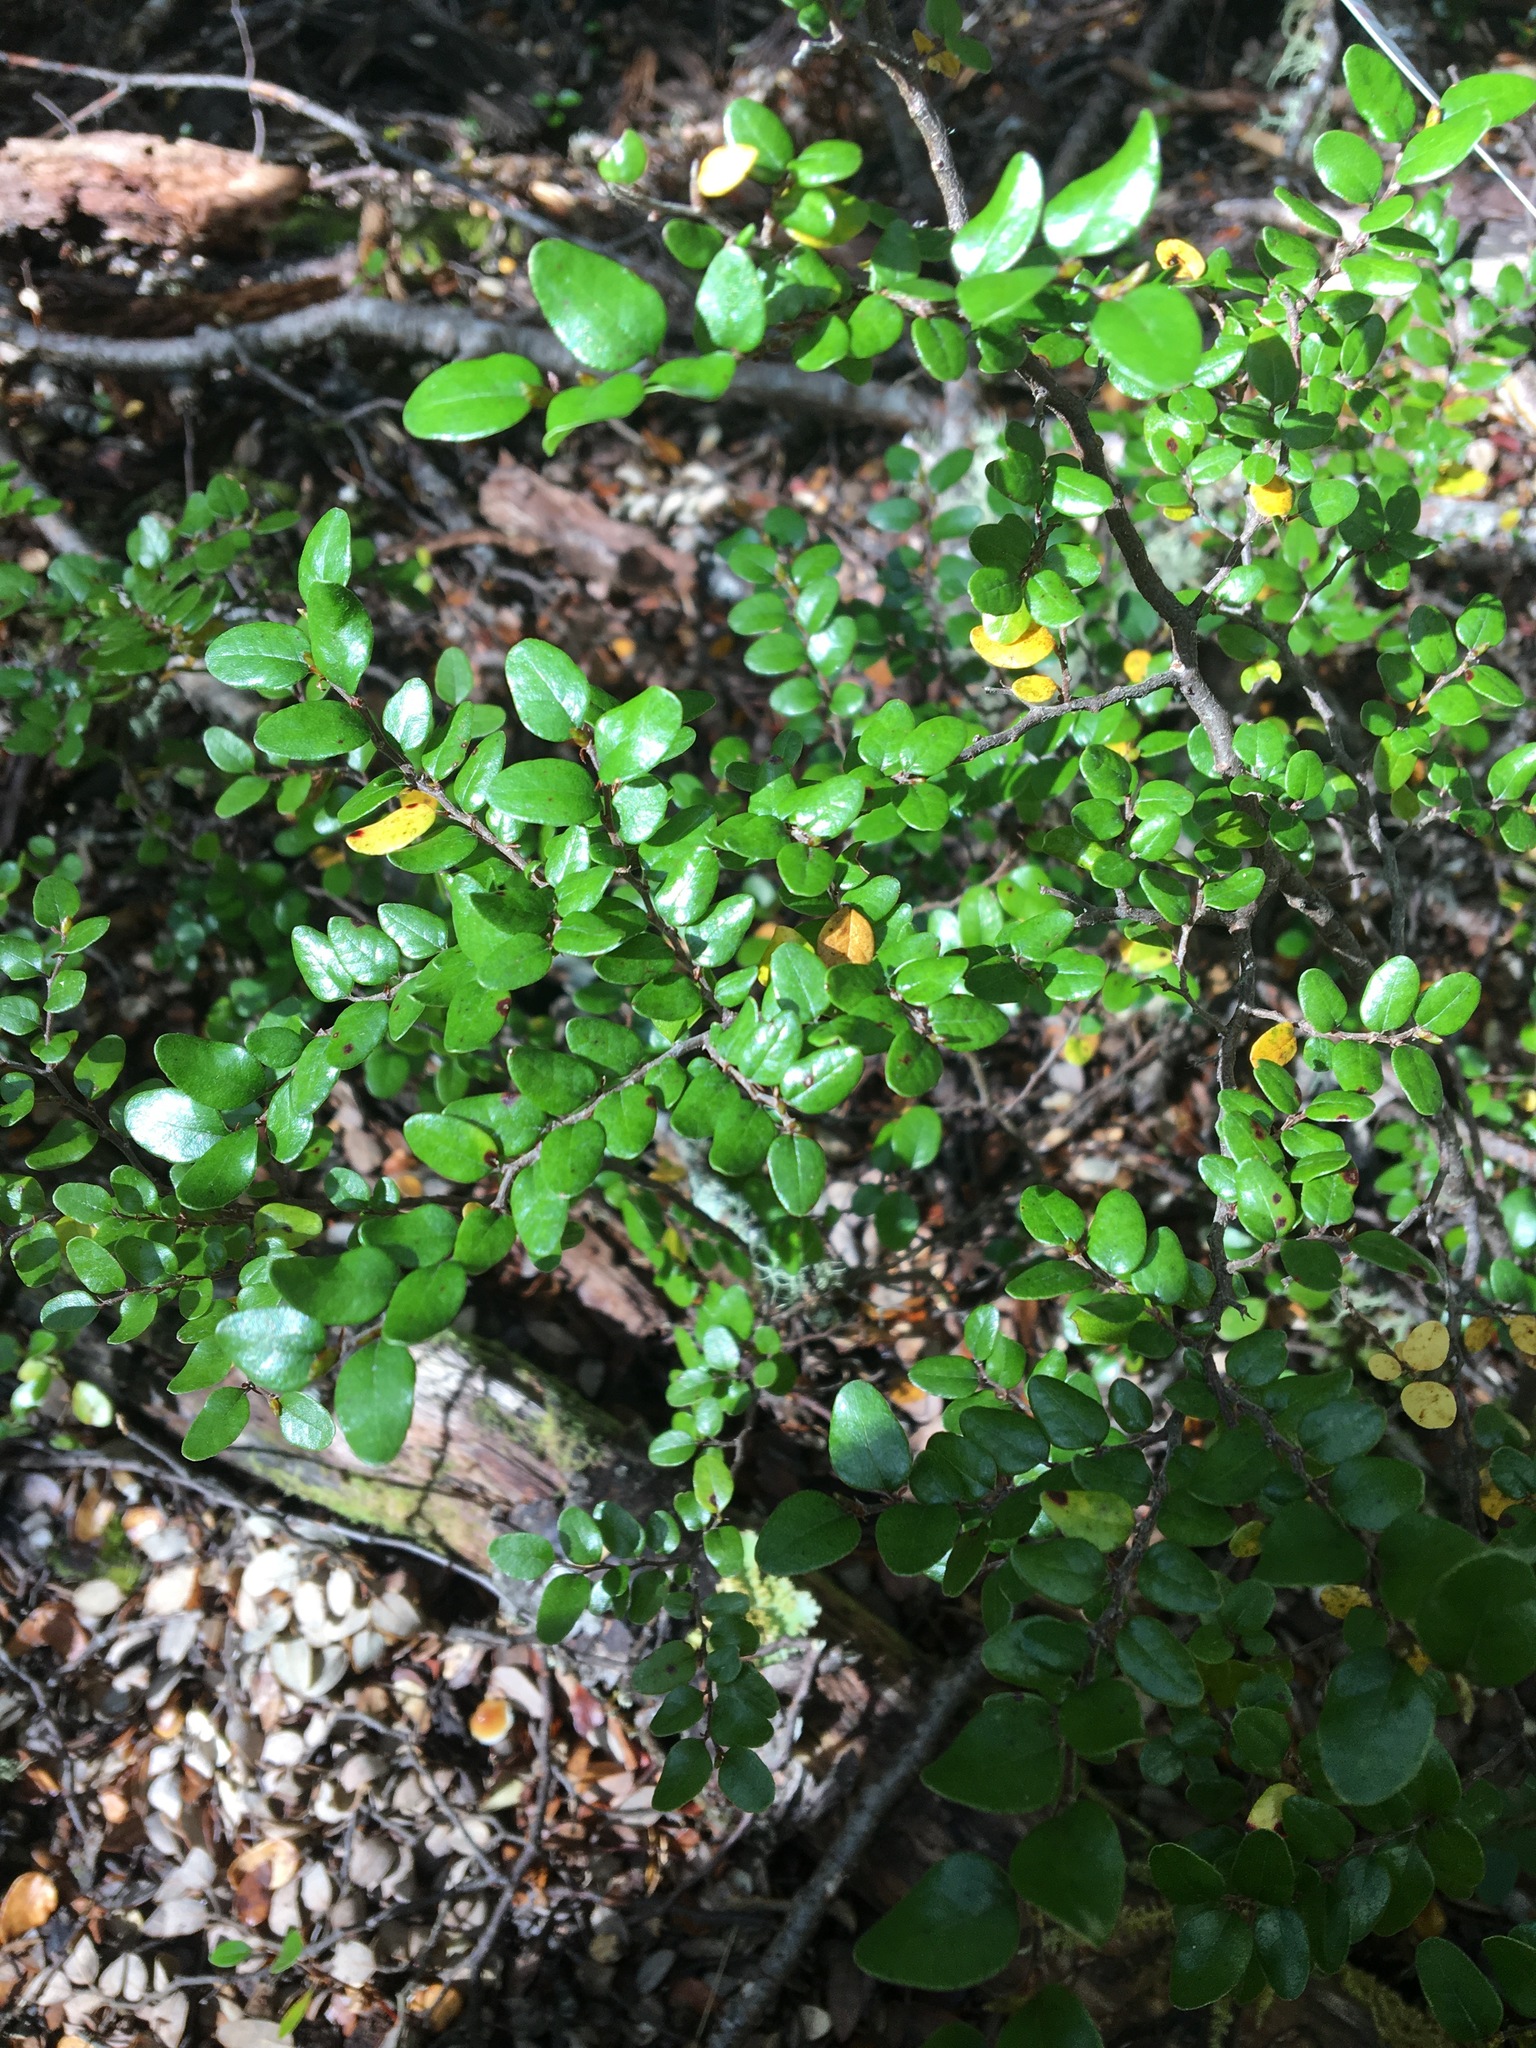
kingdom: Plantae
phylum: Tracheophyta
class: Magnoliopsida
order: Fagales
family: Nothofagaceae
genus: Nothofagus
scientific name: Nothofagus cliffortioides
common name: Mountain beech
